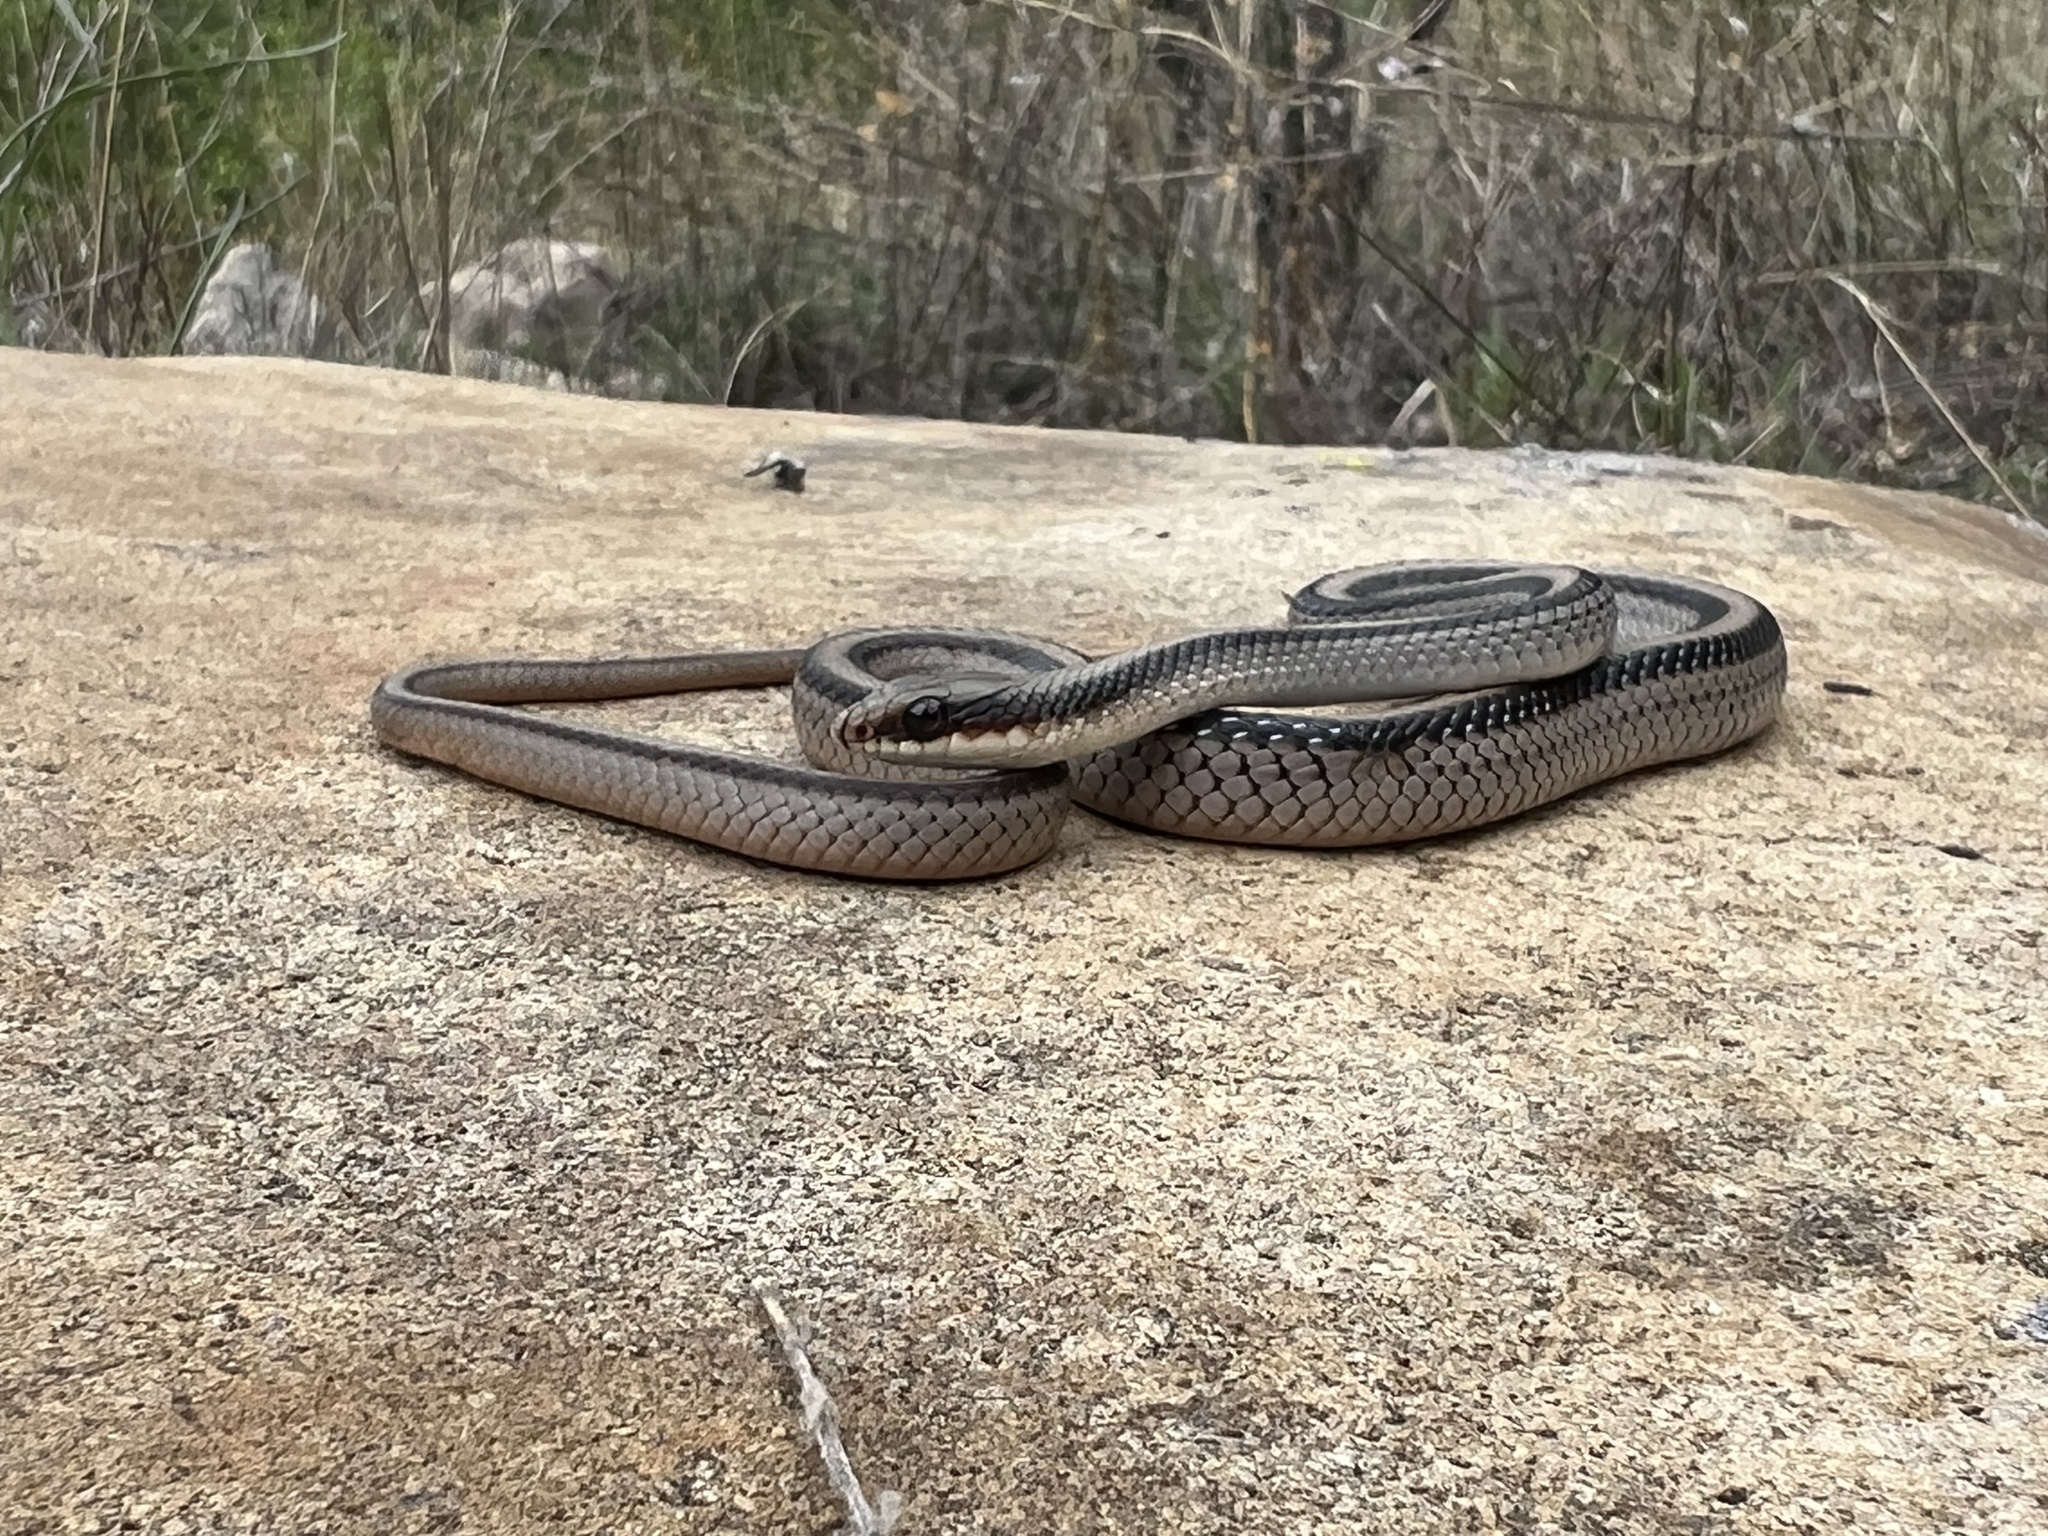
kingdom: Animalia
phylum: Chordata
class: Squamata
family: Colubridae
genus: Salvadora
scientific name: Salvadora grahamiae
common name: Mountain patchnose snake
